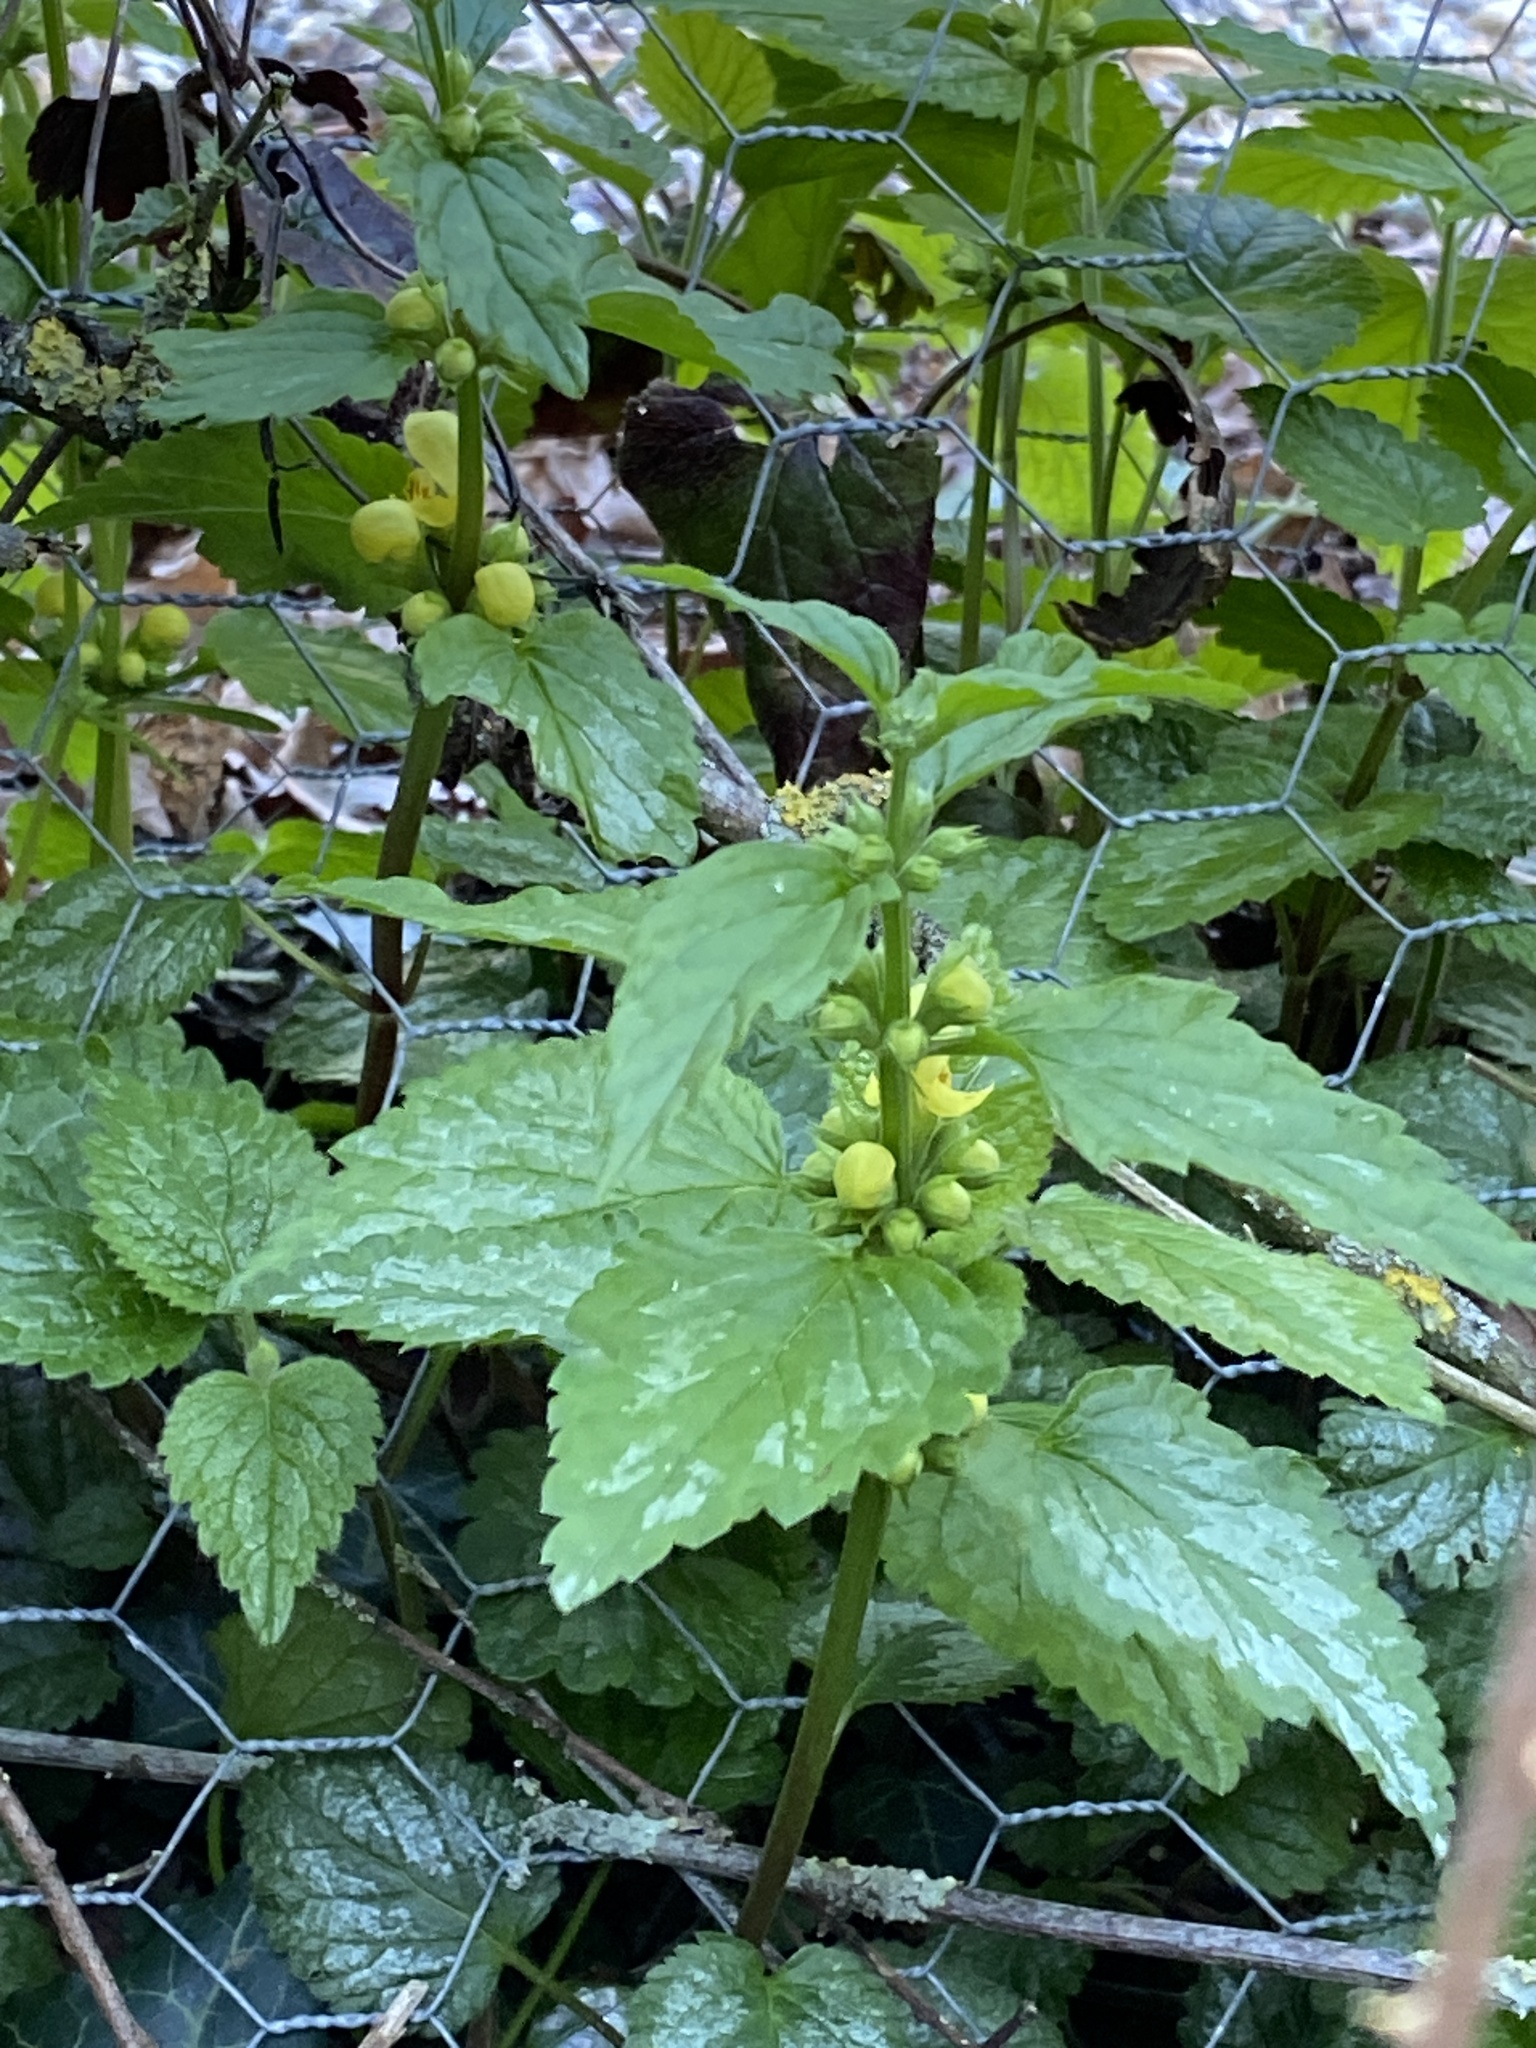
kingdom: Plantae
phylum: Tracheophyta
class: Magnoliopsida
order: Lamiales
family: Lamiaceae
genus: Lamium
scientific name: Lamium galeobdolon
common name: Yellow archangel
